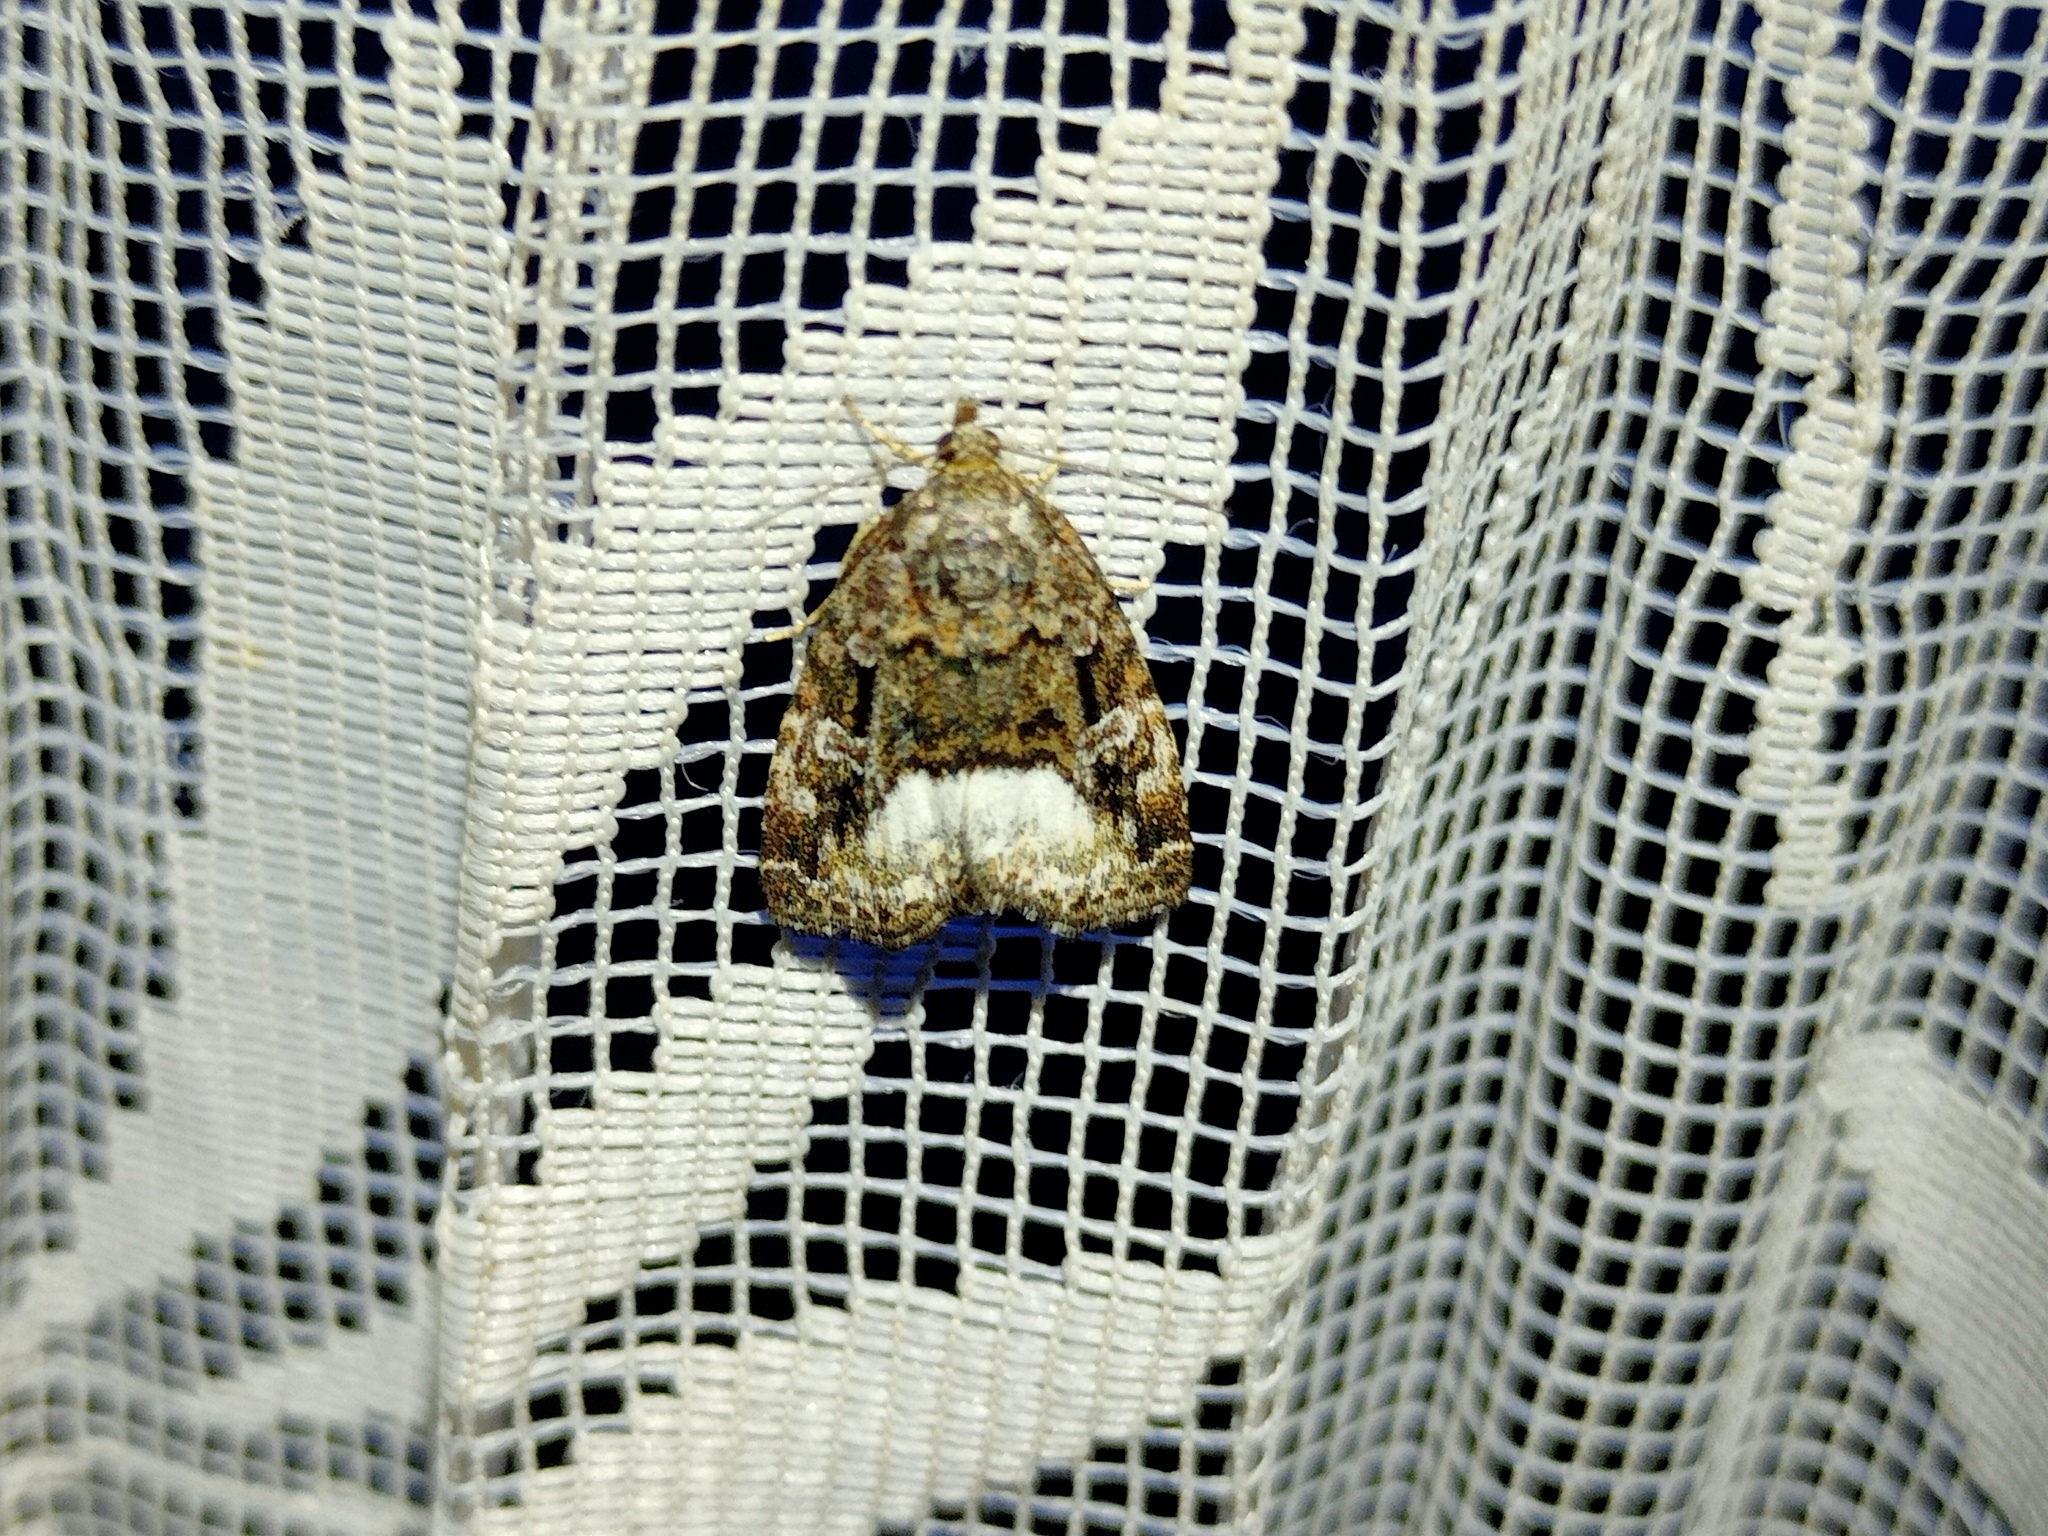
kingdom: Animalia
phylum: Arthropoda
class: Insecta
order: Lepidoptera
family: Noctuidae
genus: Deltote
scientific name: Deltote pygarga
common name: Marbled white spot
